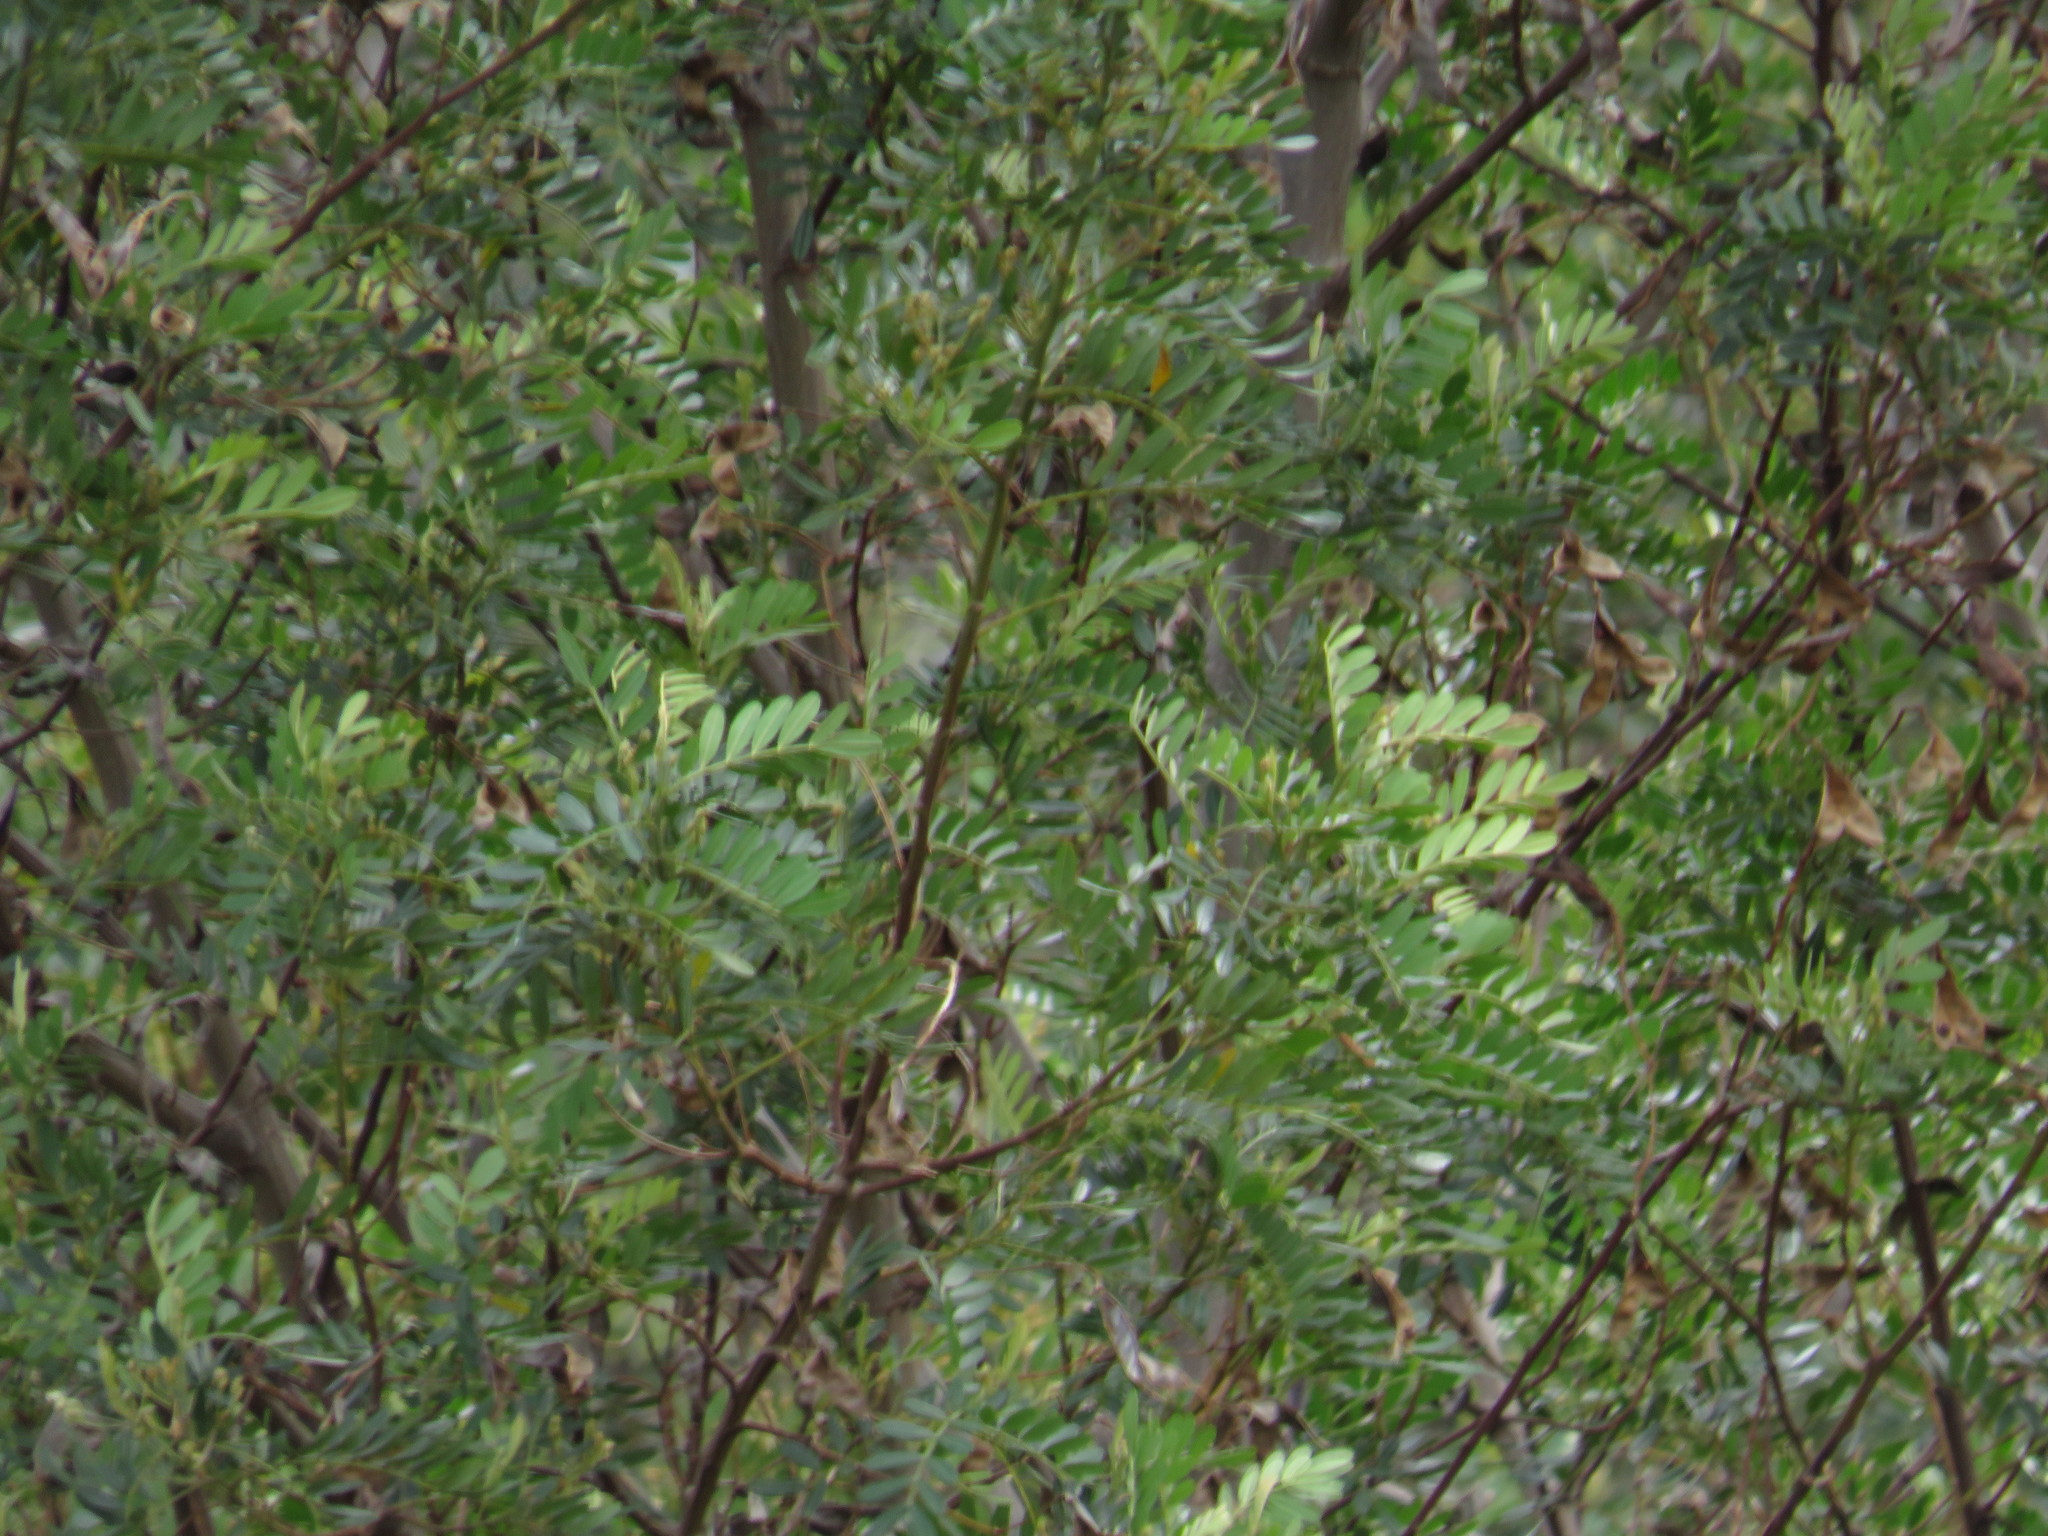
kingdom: Plantae
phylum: Tracheophyta
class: Magnoliopsida
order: Fabales
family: Fabaceae
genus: Virgilia
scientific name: Virgilia oroboides
